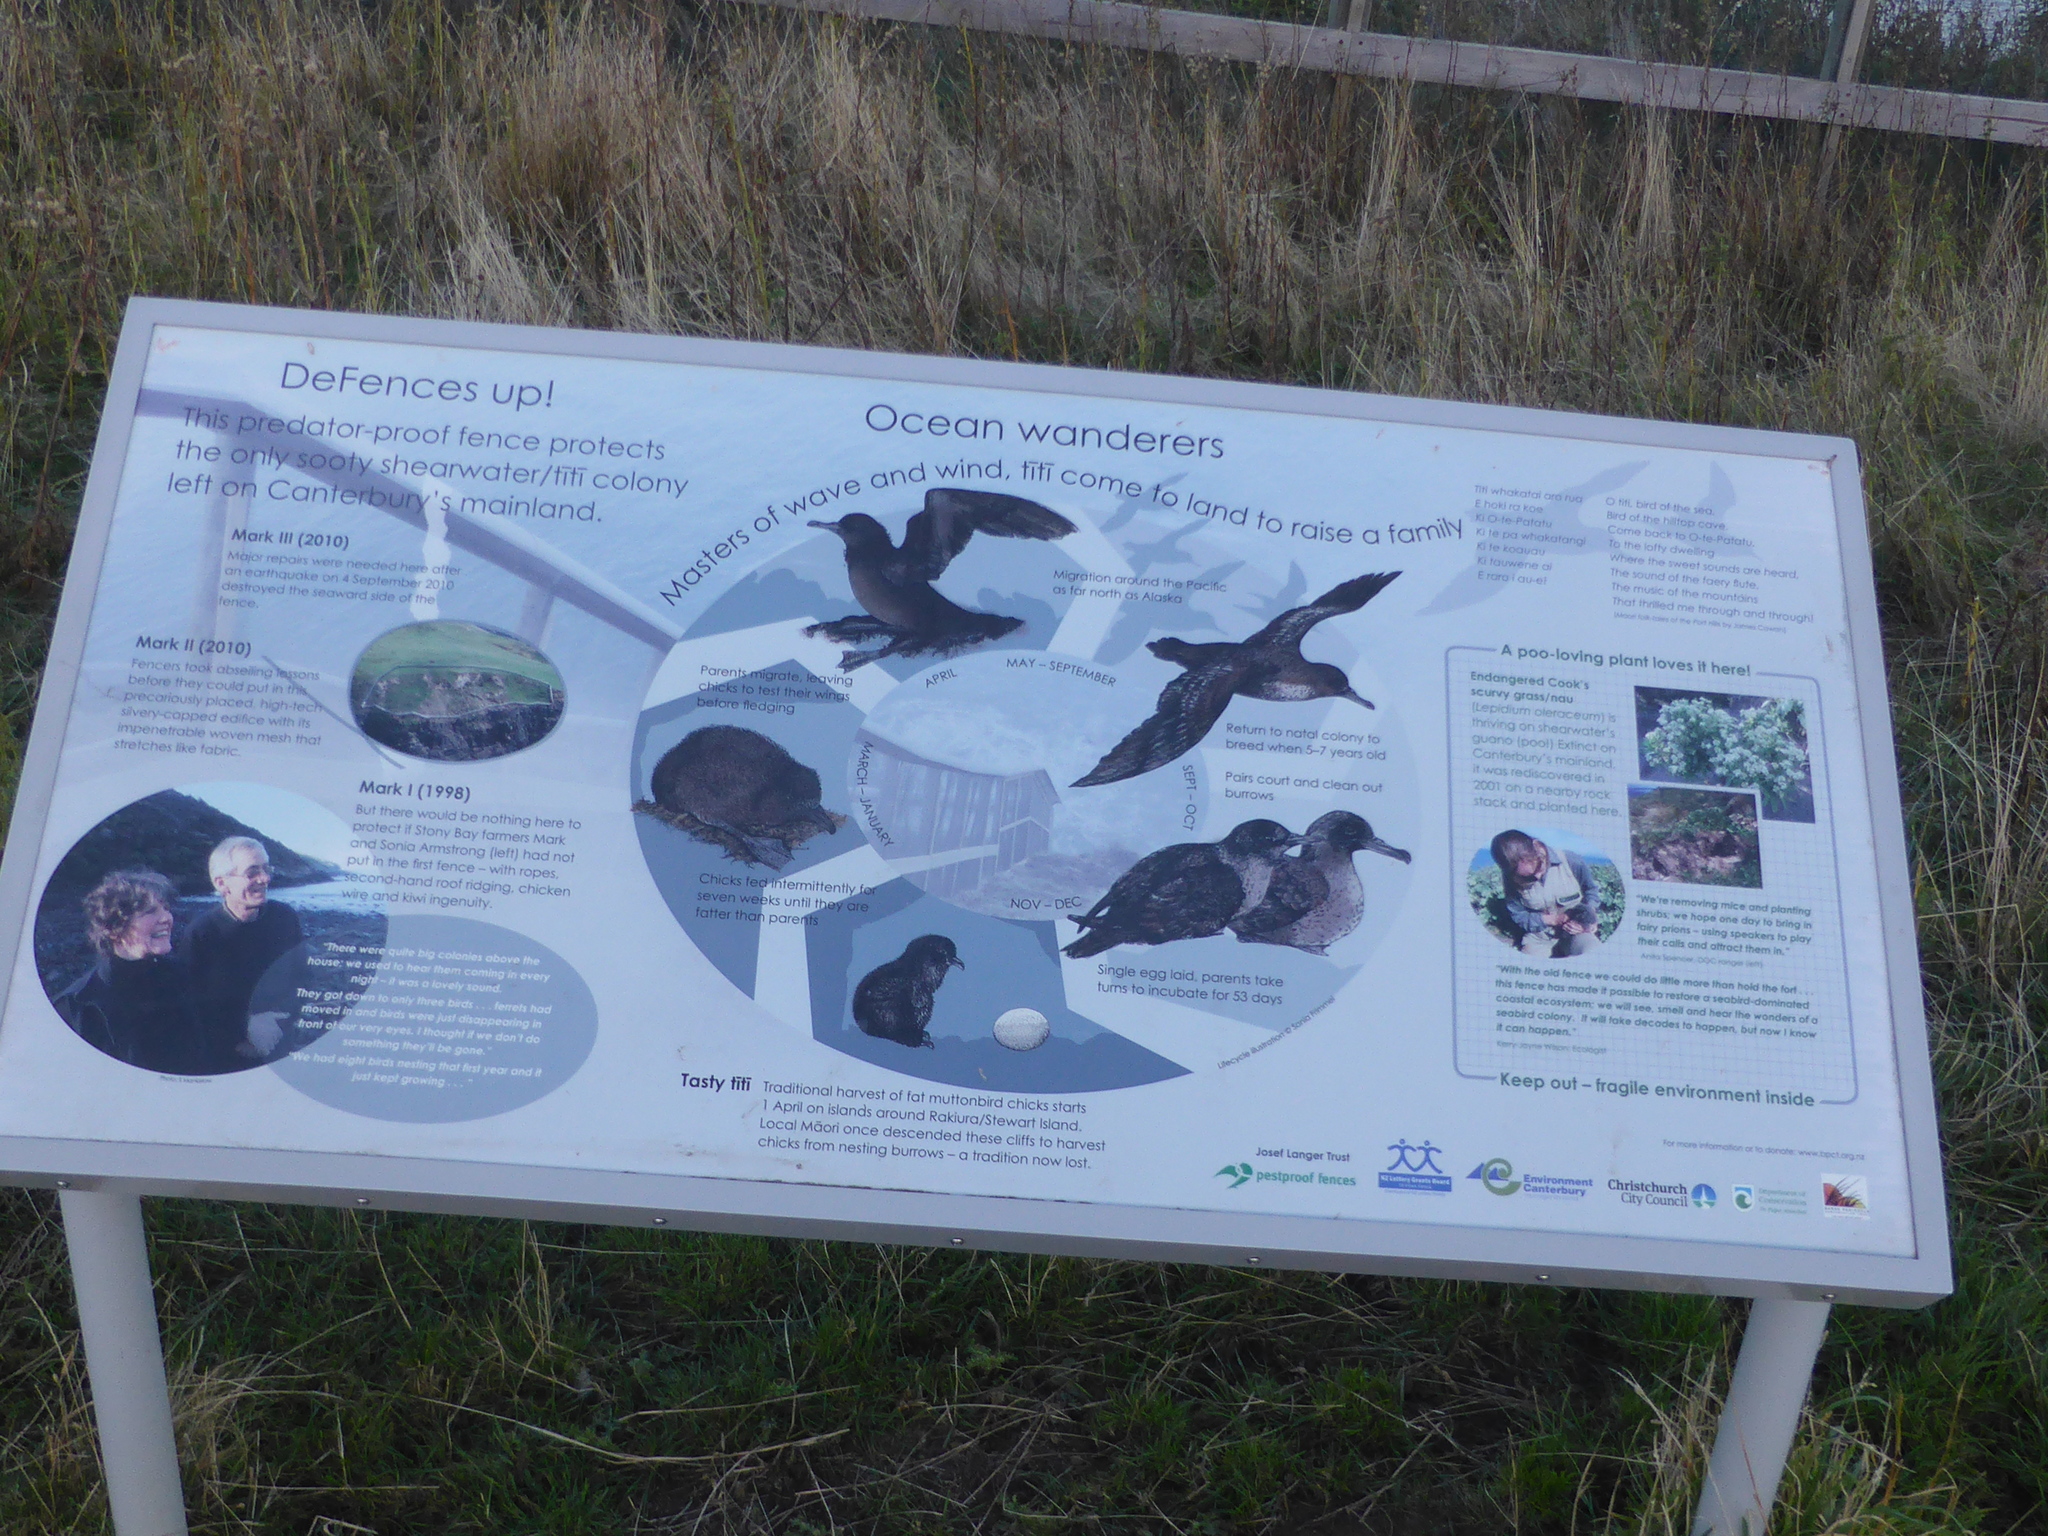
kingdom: Animalia
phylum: Chordata
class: Aves
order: Procellariiformes
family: Procellariidae
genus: Puffinus
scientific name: Puffinus griseus
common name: Sooty shearwater
